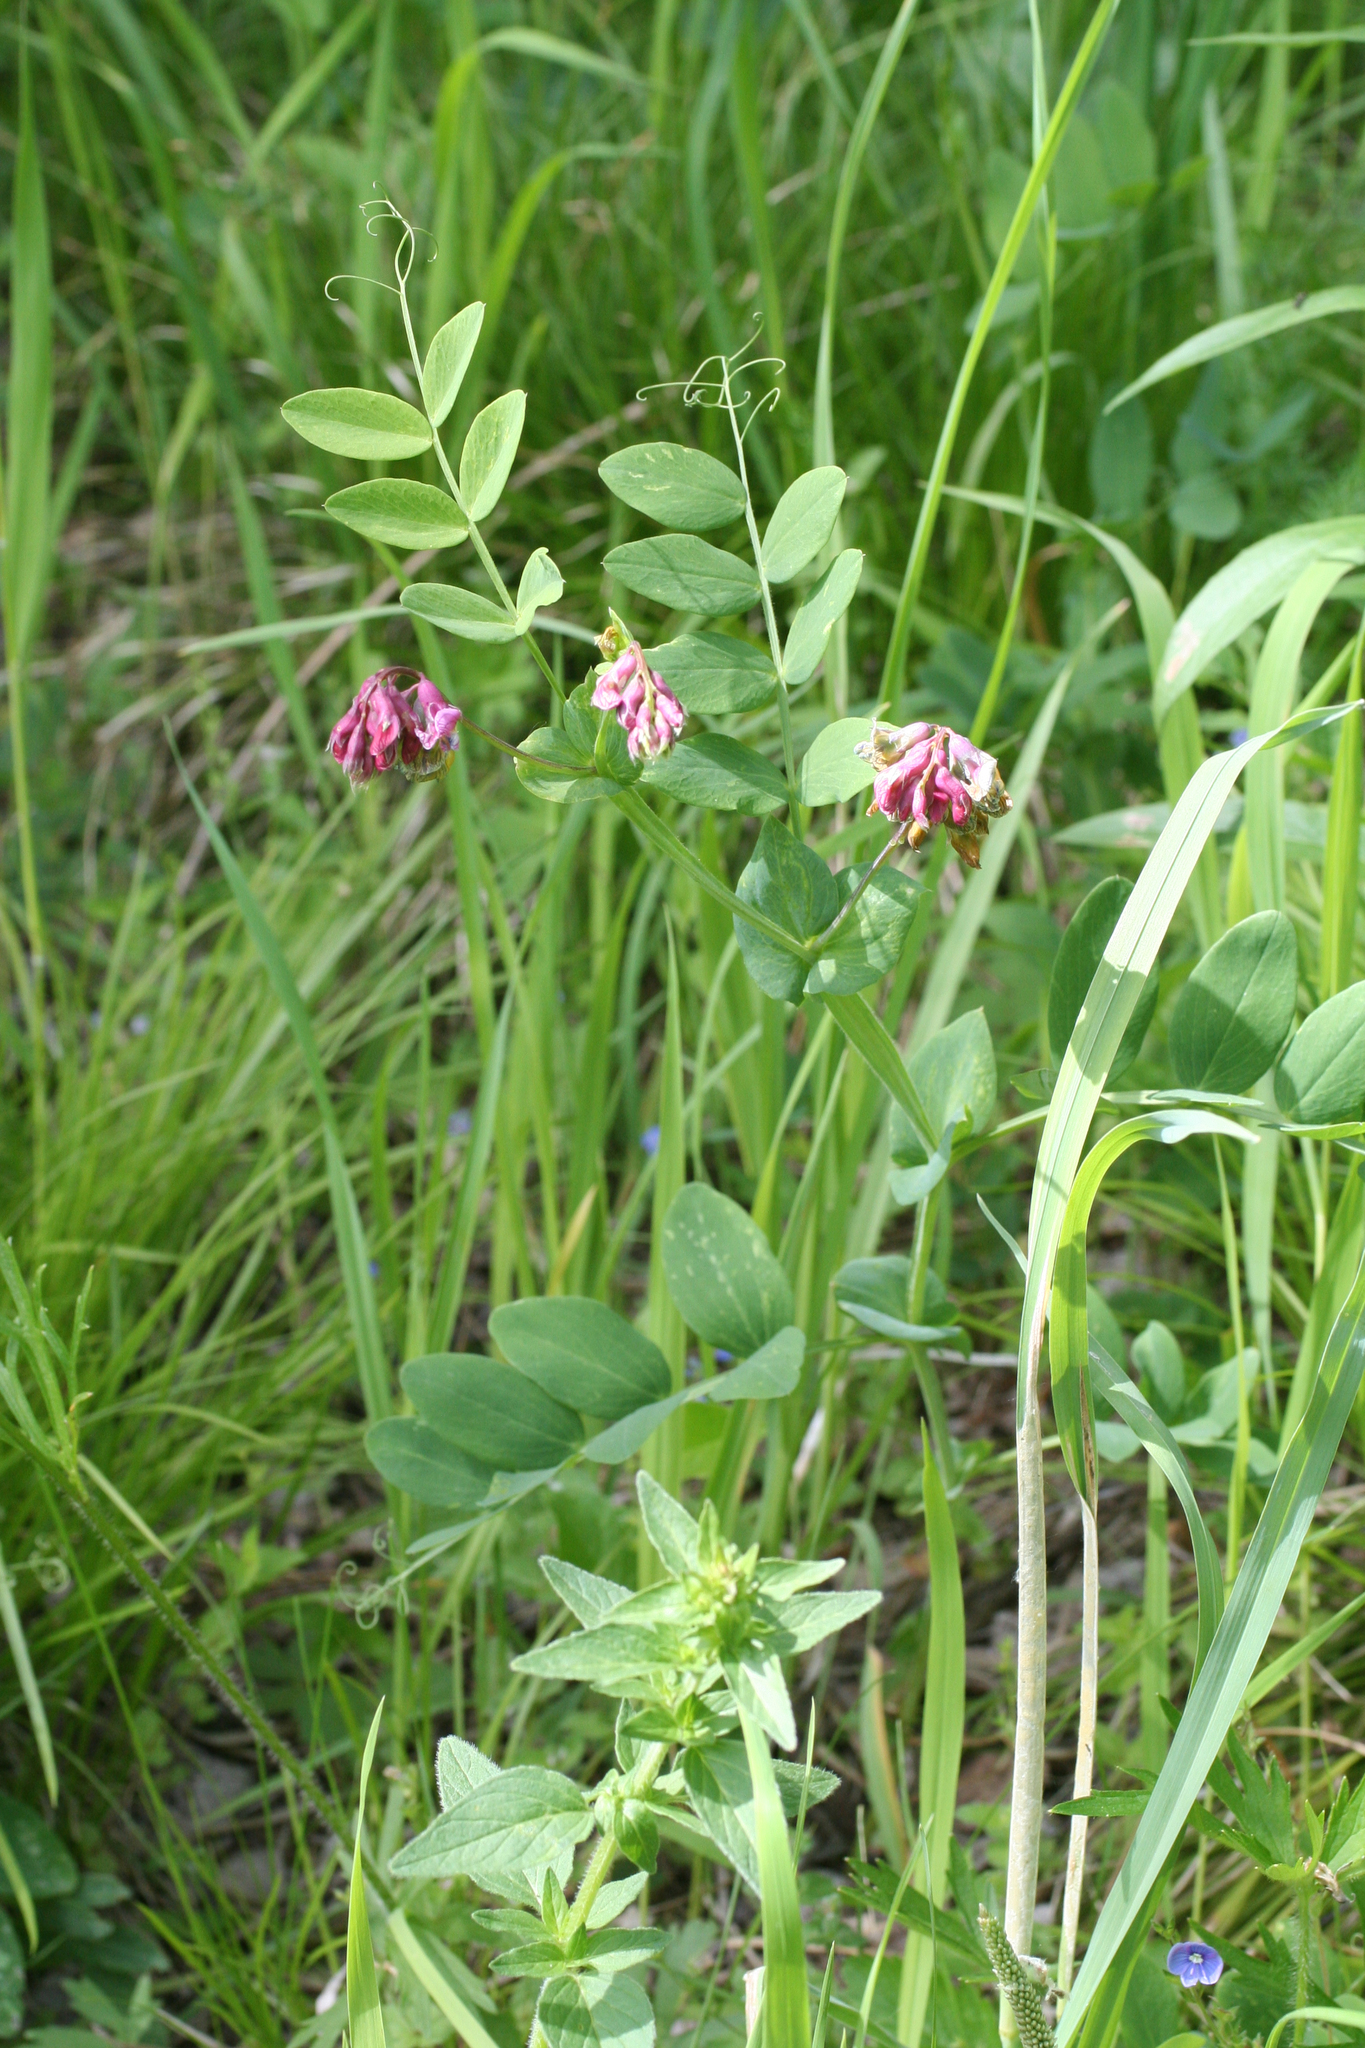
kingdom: Plantae
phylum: Tracheophyta
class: Magnoliopsida
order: Fabales
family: Fabaceae
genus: Lathyrus
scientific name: Lathyrus pisiformis
